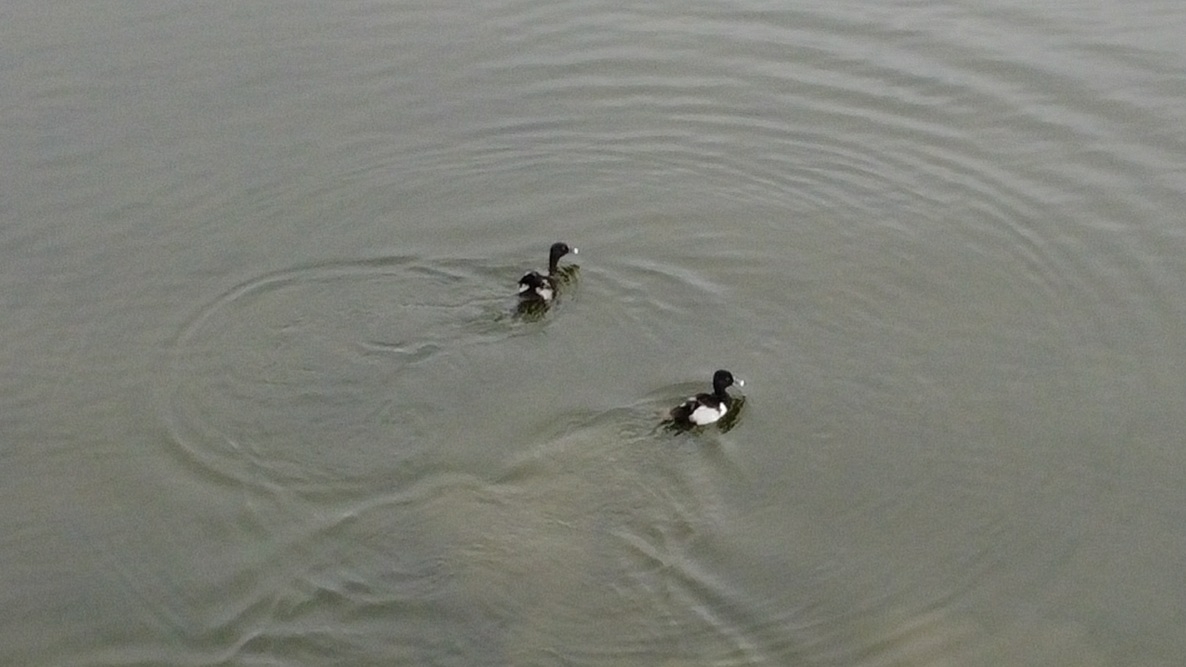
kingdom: Animalia
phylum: Chordata
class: Aves
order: Anseriformes
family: Anatidae
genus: Aythya
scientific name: Aythya collaris
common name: Ring-necked duck
